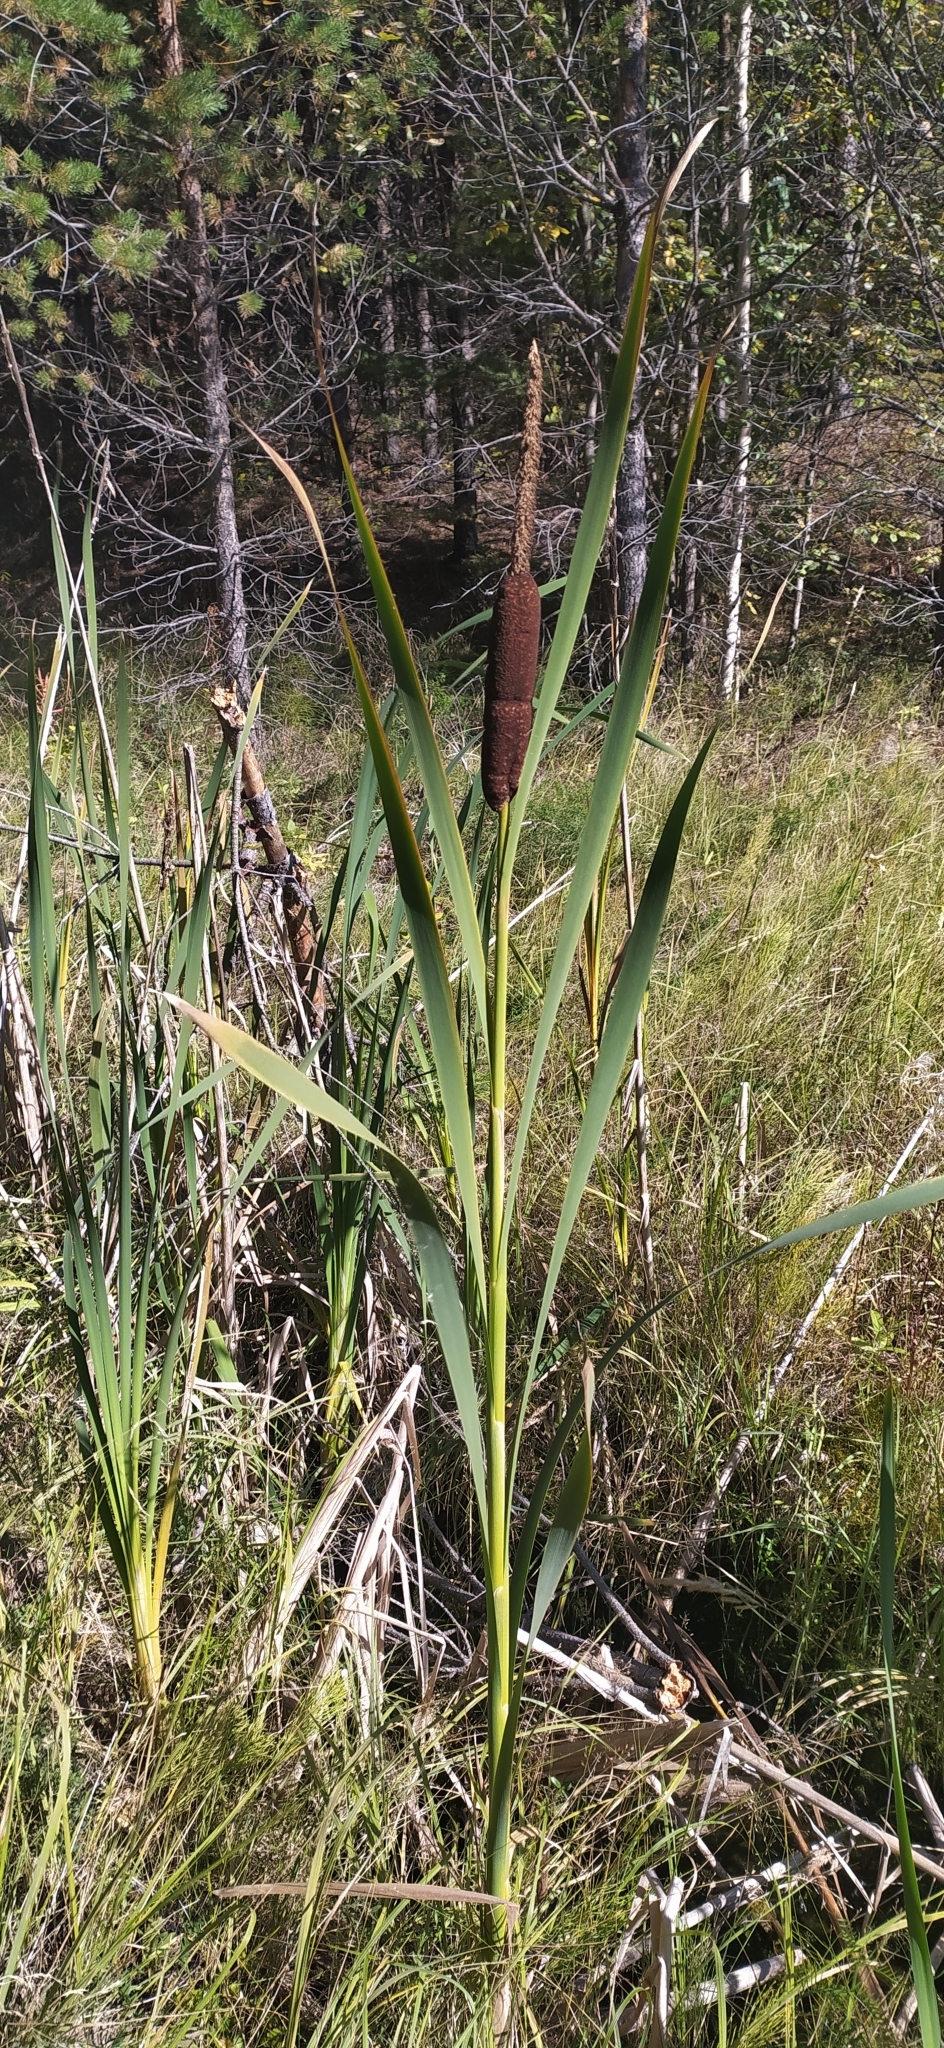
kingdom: Plantae
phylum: Tracheophyta
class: Liliopsida
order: Poales
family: Typhaceae
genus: Typha
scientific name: Typha latifolia
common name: Broadleaf cattail
